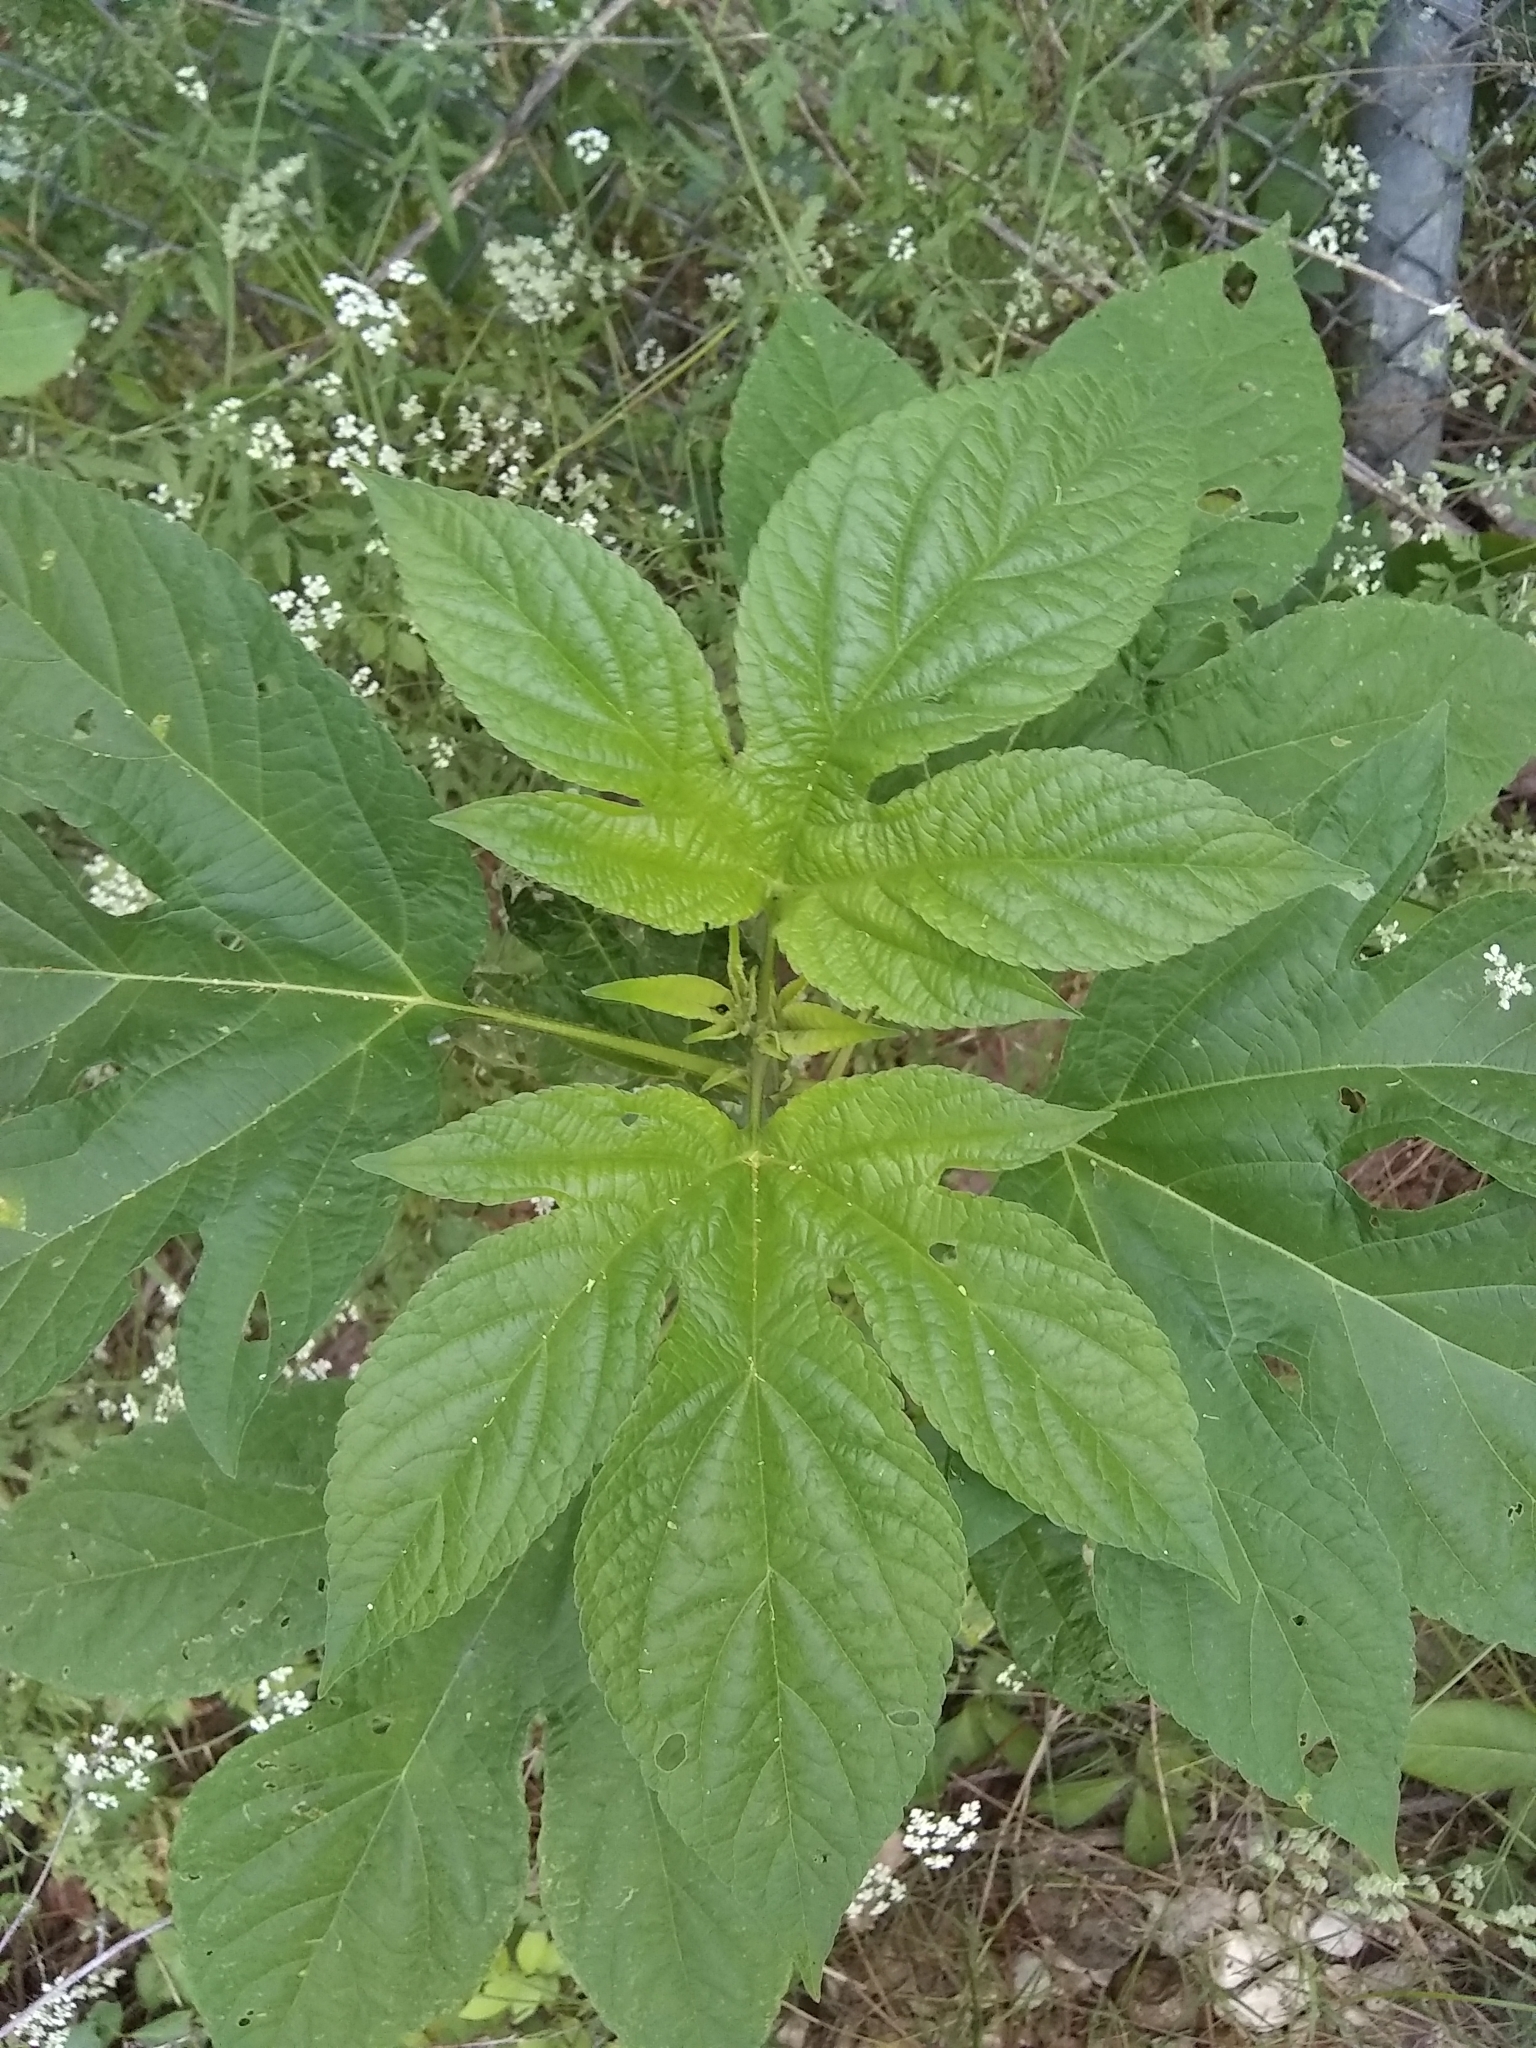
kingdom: Plantae
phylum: Tracheophyta
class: Magnoliopsida
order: Asterales
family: Asteraceae
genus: Ambrosia
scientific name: Ambrosia trifida
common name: Giant ragweed
